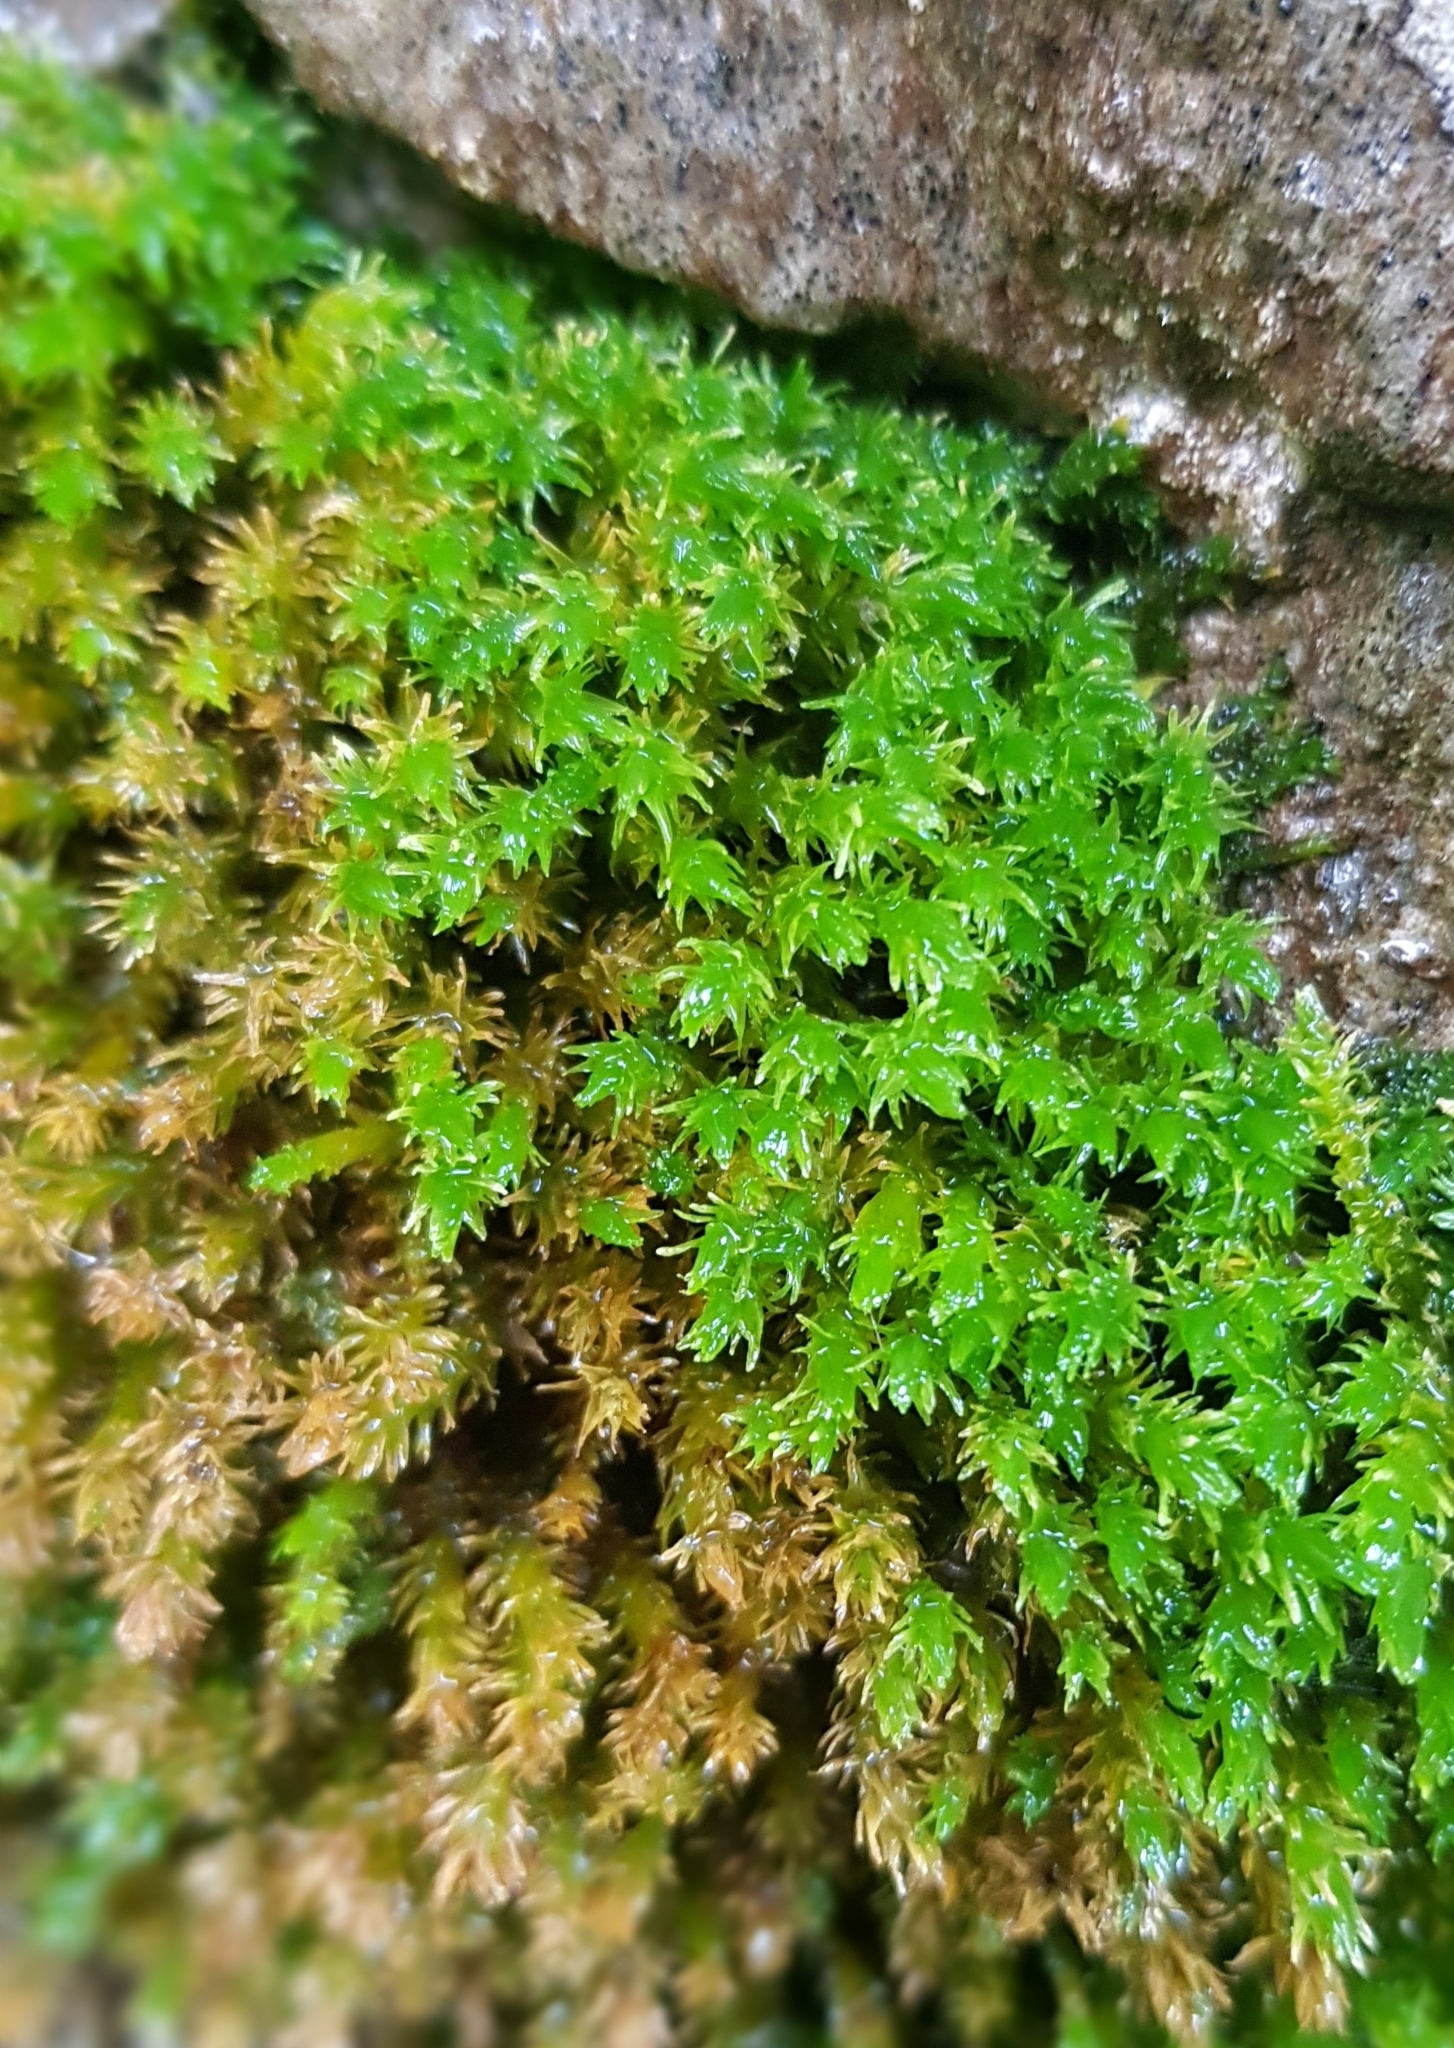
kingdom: Plantae
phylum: Bryophyta
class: Bryopsida
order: Hypnales
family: Anomodontaceae
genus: Anomodon
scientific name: Anomodon viticulosus
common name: Tall anomodon
